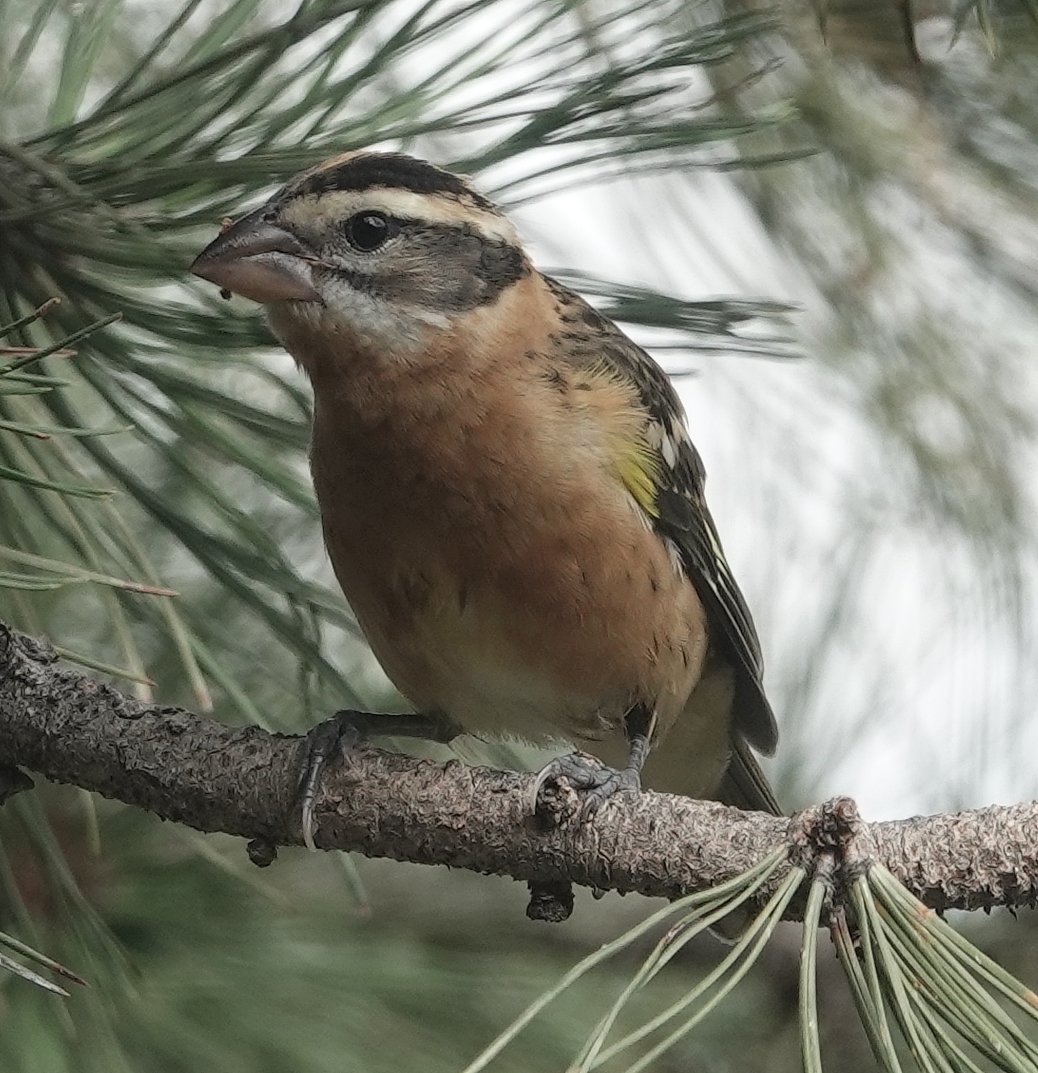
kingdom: Animalia
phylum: Chordata
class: Aves
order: Passeriformes
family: Cardinalidae
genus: Pheucticus
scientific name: Pheucticus melanocephalus
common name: Black-headed grosbeak
